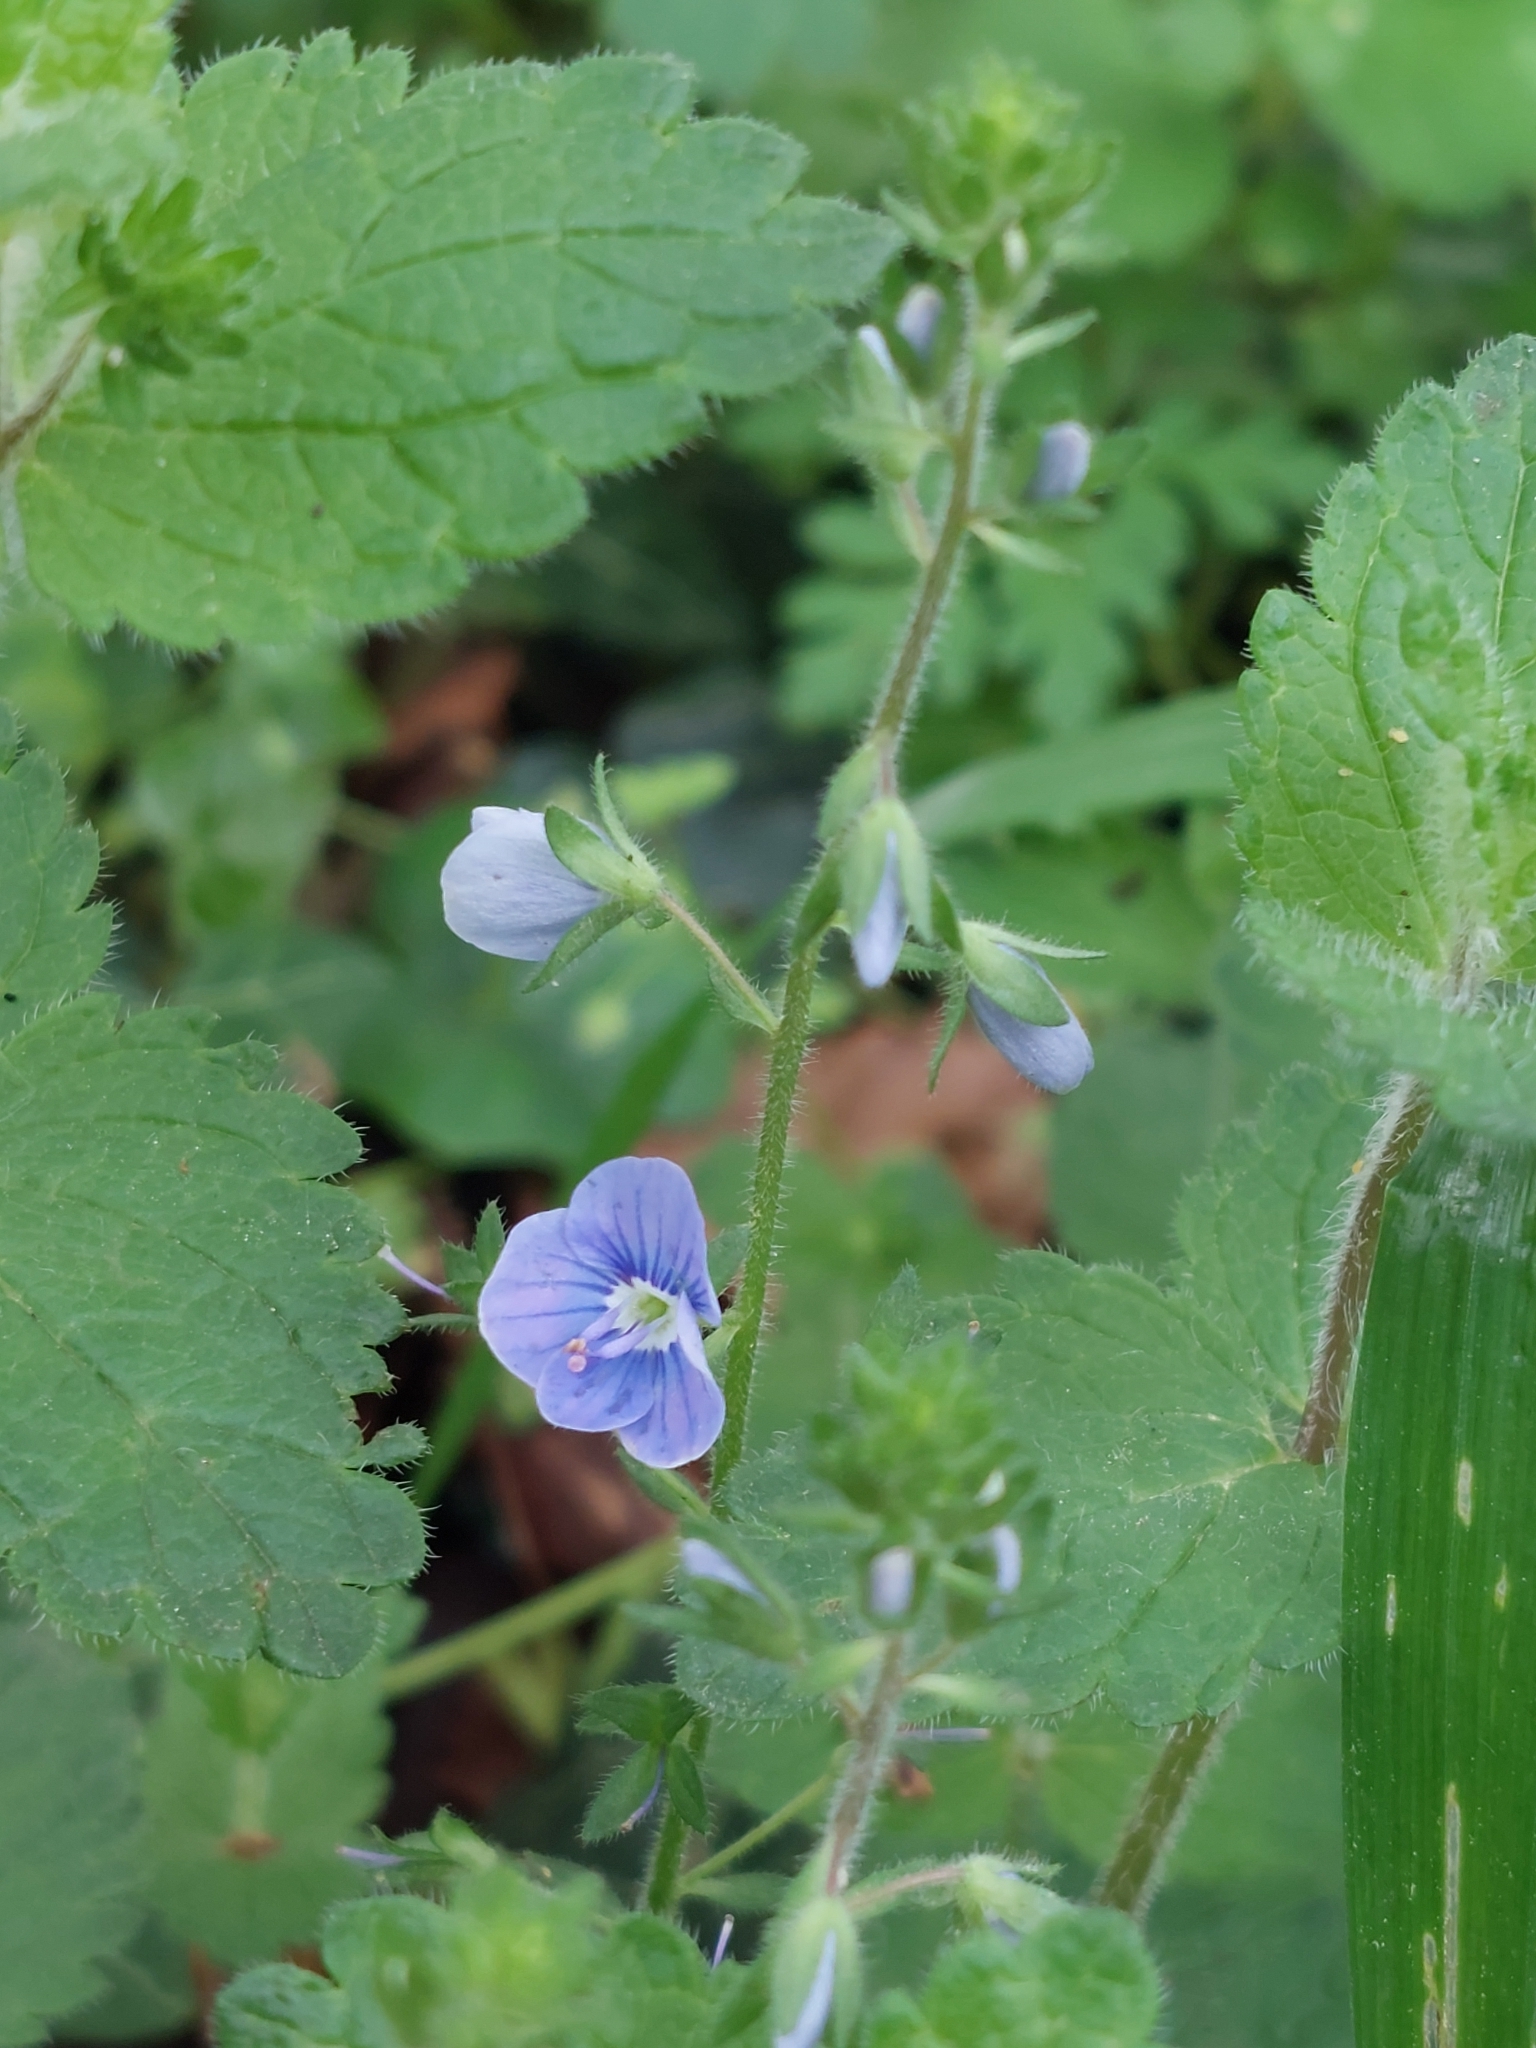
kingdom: Plantae
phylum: Tracheophyta
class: Magnoliopsida
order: Lamiales
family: Plantaginaceae
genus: Veronica
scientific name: Veronica chamaedrys
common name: Germander speedwell
